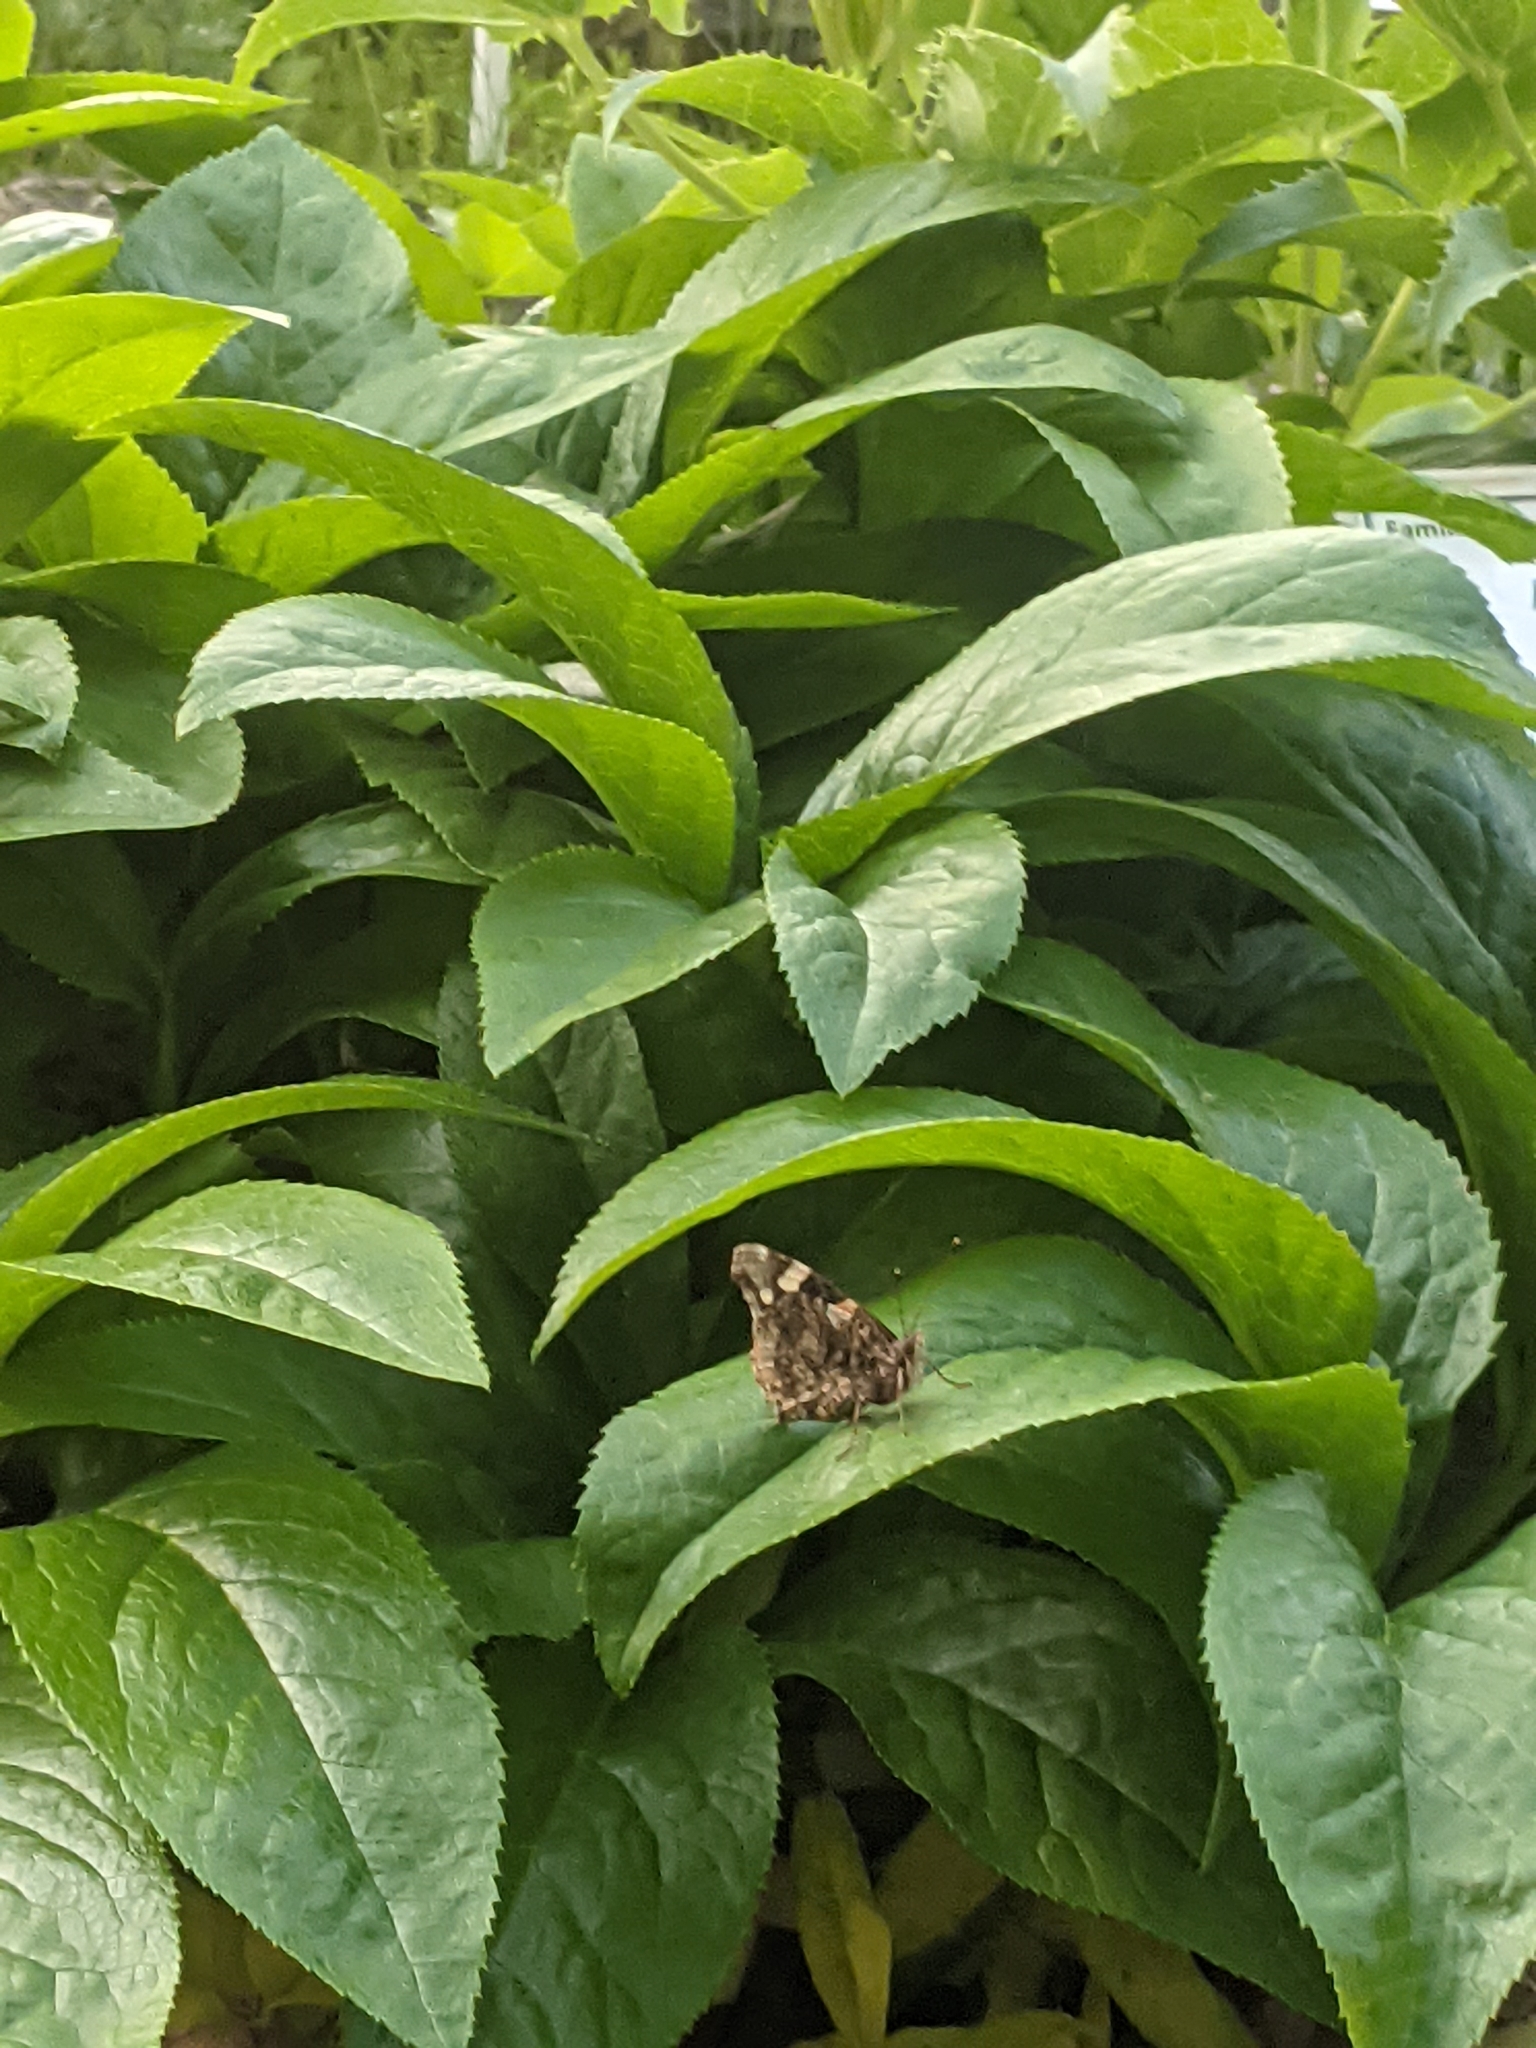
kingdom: Animalia
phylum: Arthropoda
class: Insecta
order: Lepidoptera
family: Nymphalidae
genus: Vanessa
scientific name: Vanessa atalanta
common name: Red admiral
